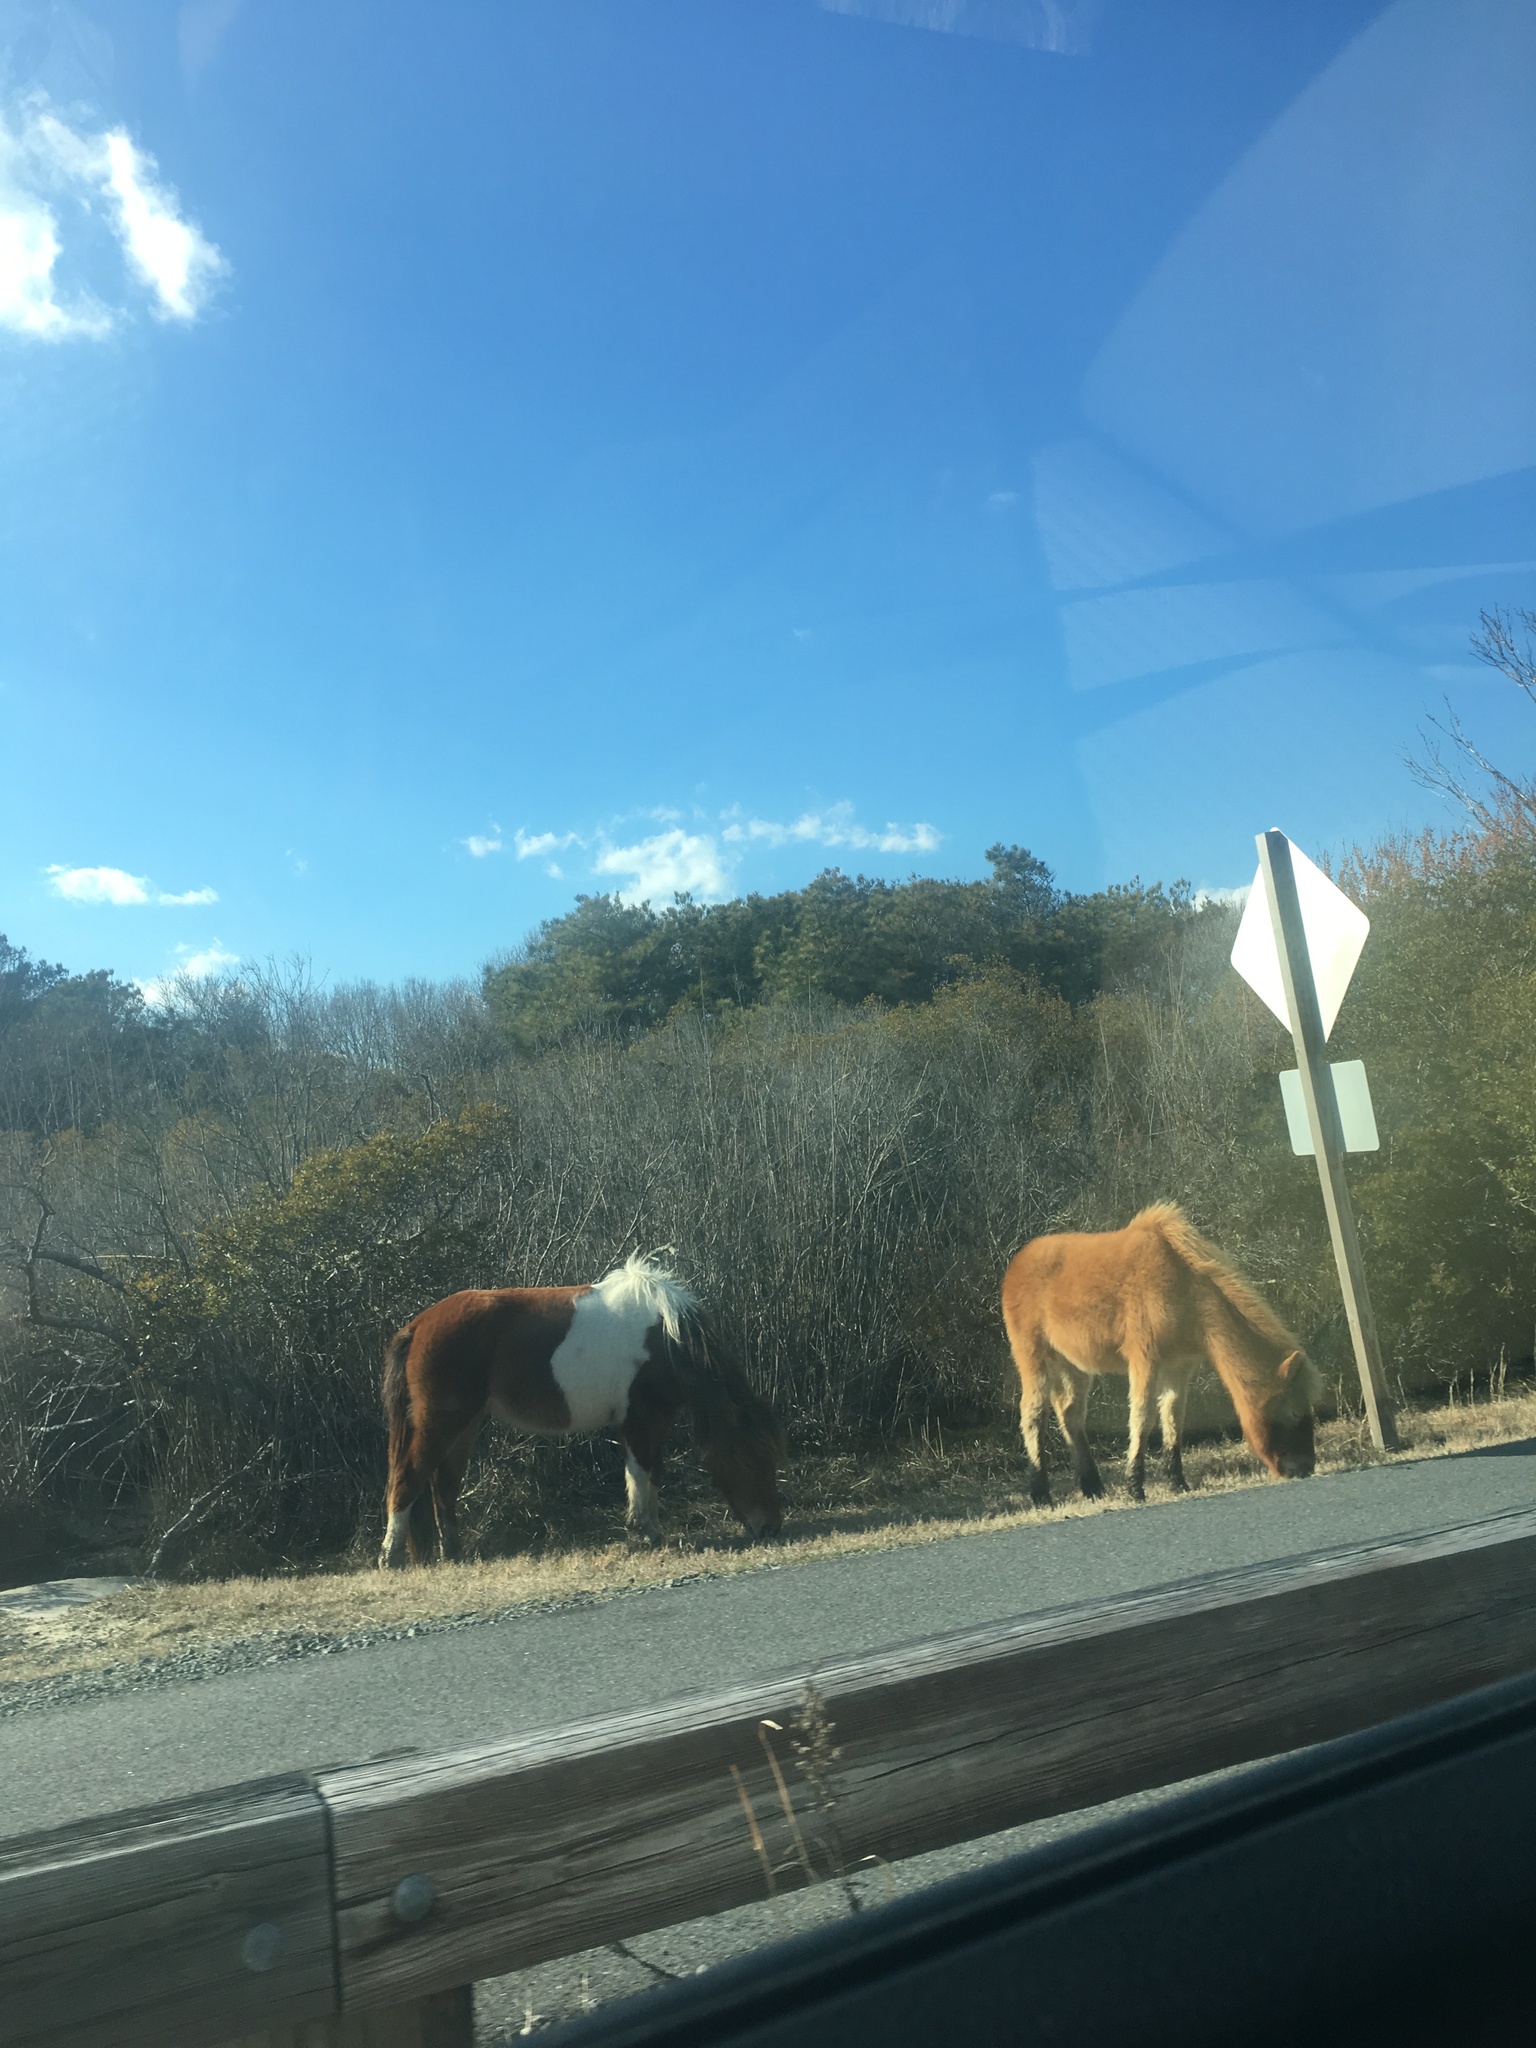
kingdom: Animalia
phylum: Chordata
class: Mammalia
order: Perissodactyla
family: Equidae
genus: Equus
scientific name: Equus caballus
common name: Horse
